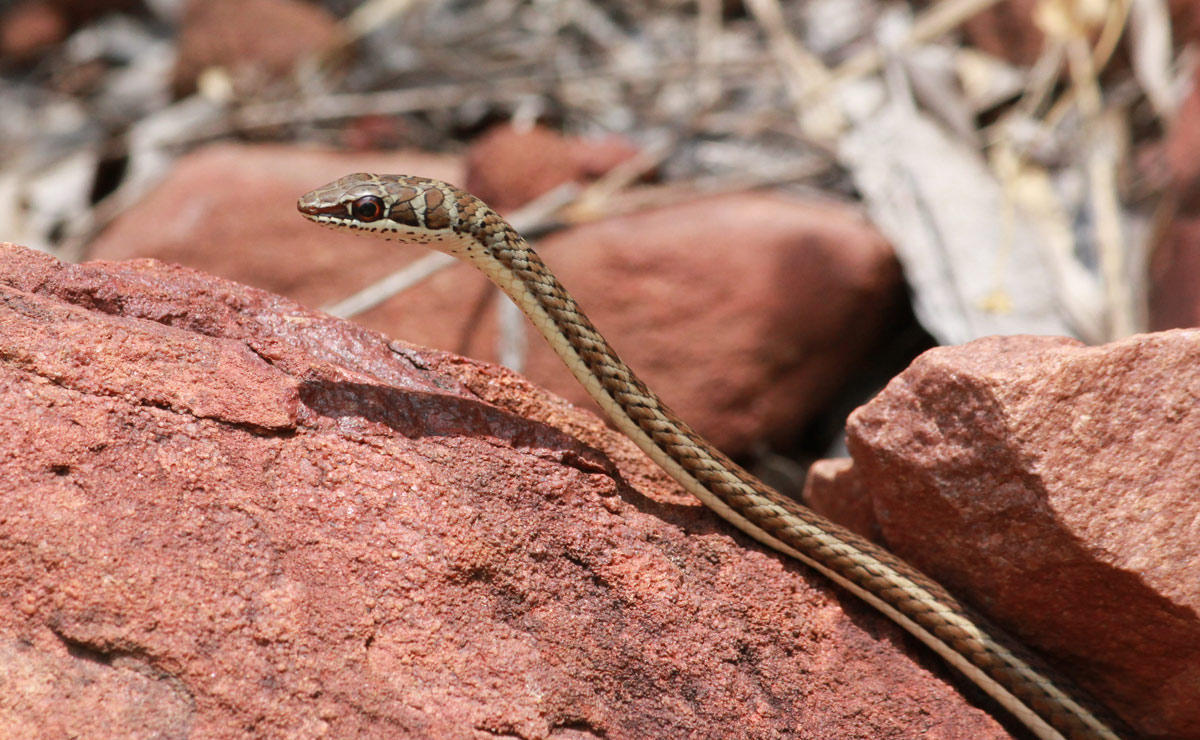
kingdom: Animalia
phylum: Chordata
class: Squamata
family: Psammophiidae
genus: Psammophis
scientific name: Psammophis subtaeniatus
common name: Stripe-bellied sand snake
